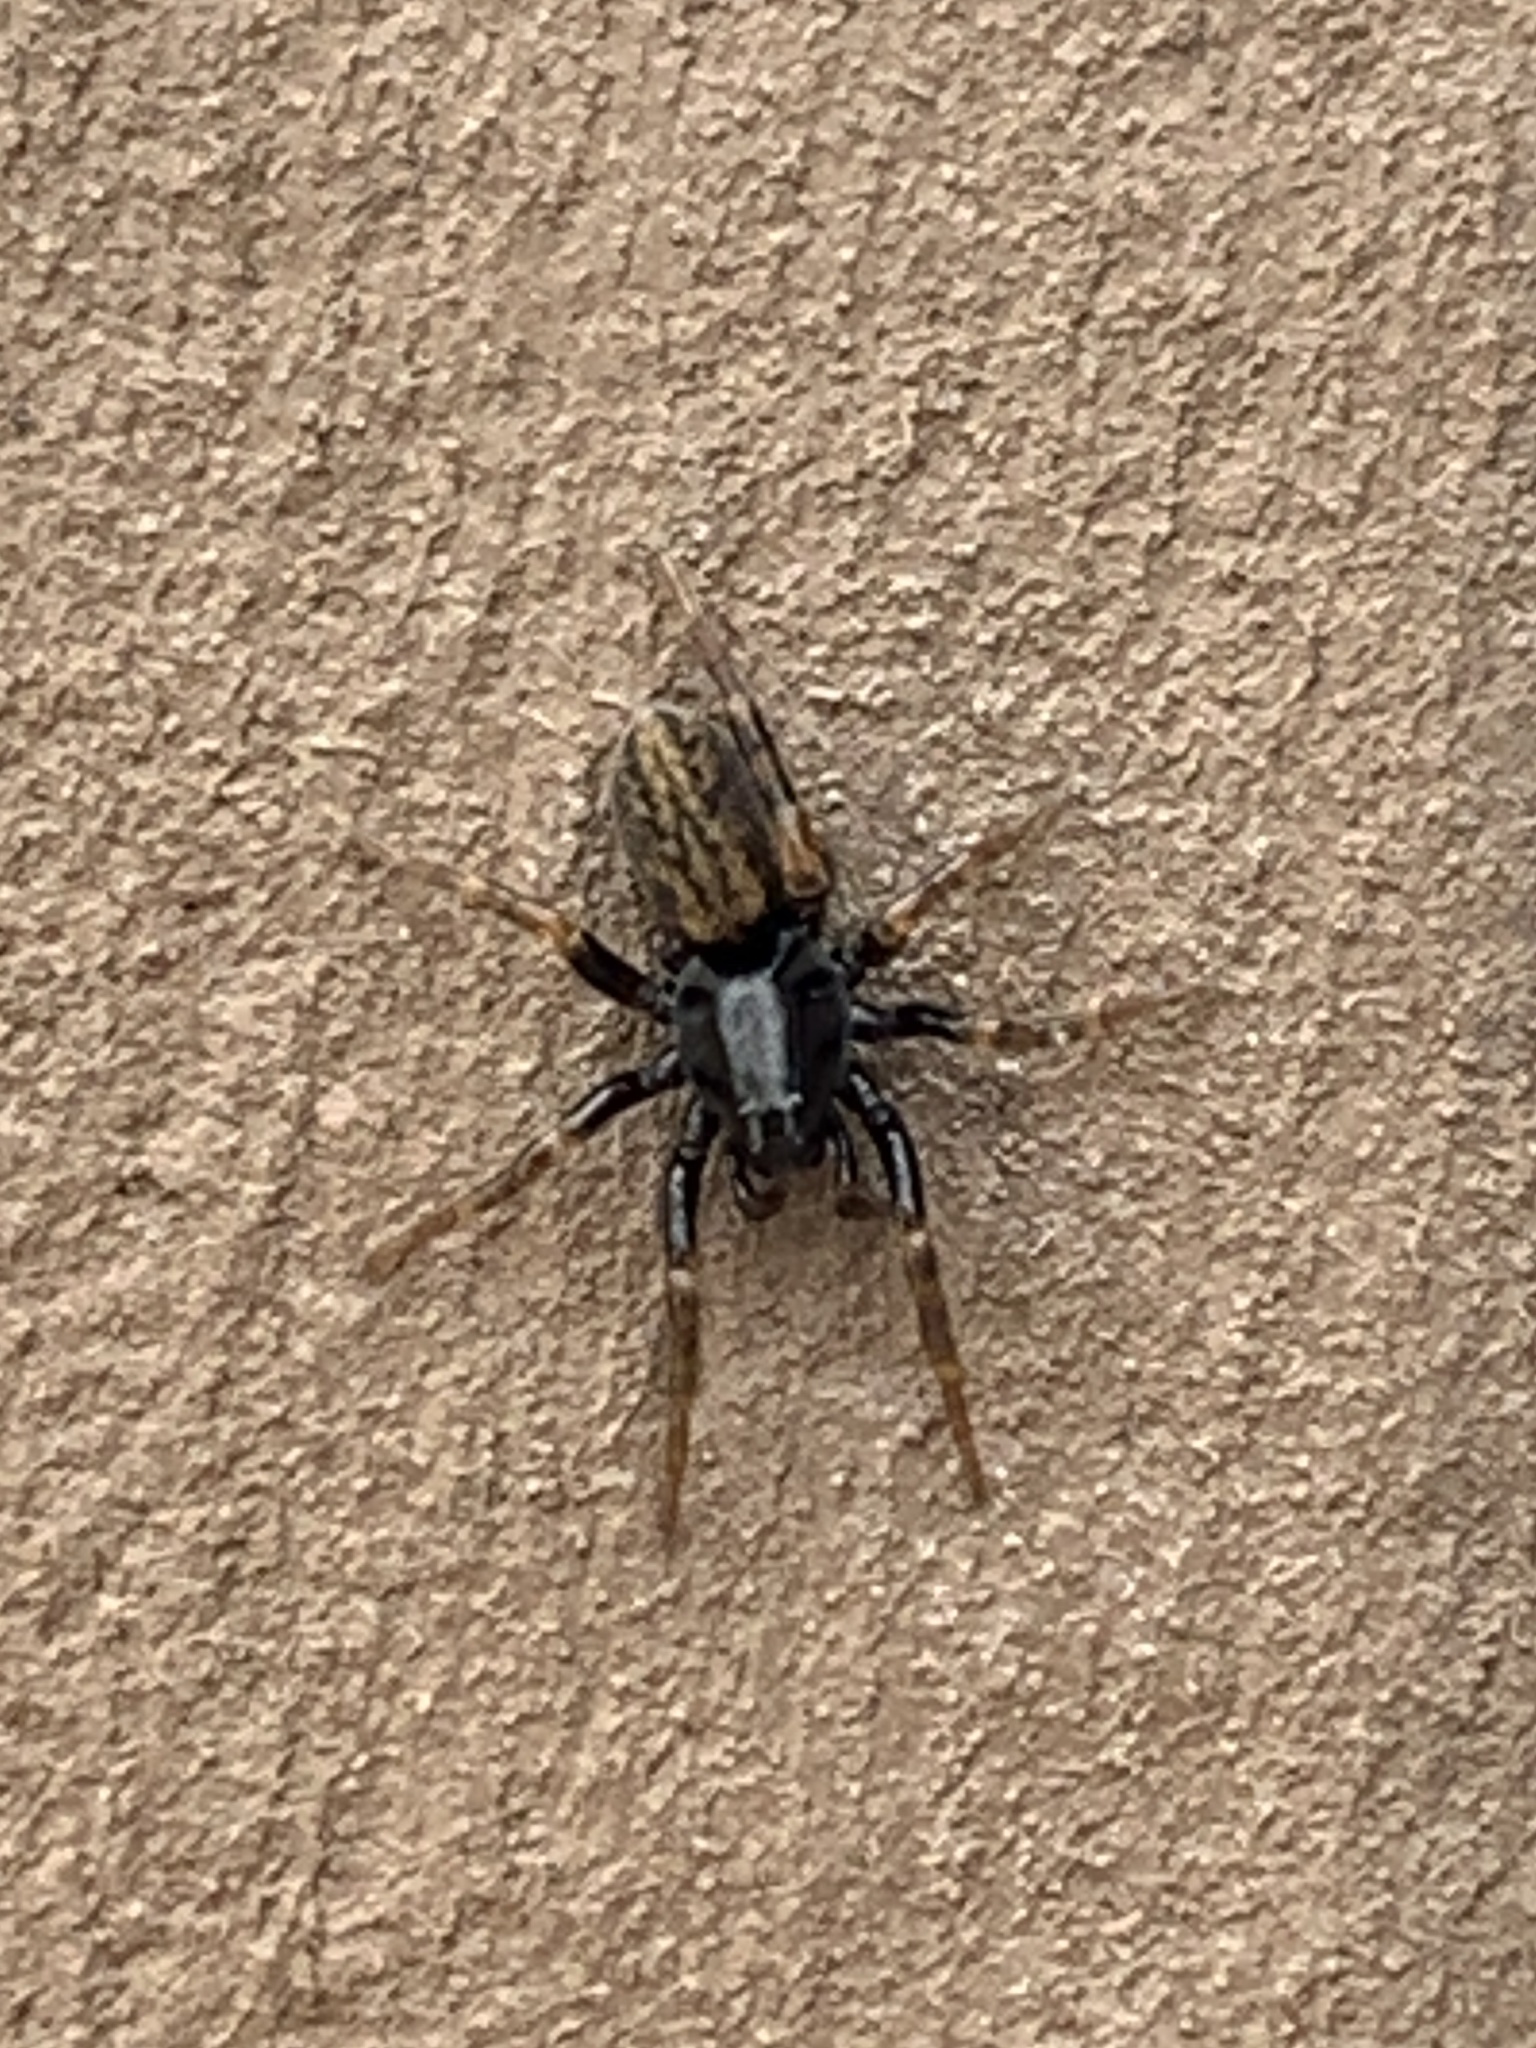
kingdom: Animalia
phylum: Arthropoda
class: Arachnida
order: Araneae
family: Lycosidae
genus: Allocosa
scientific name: Allocosa funerea
